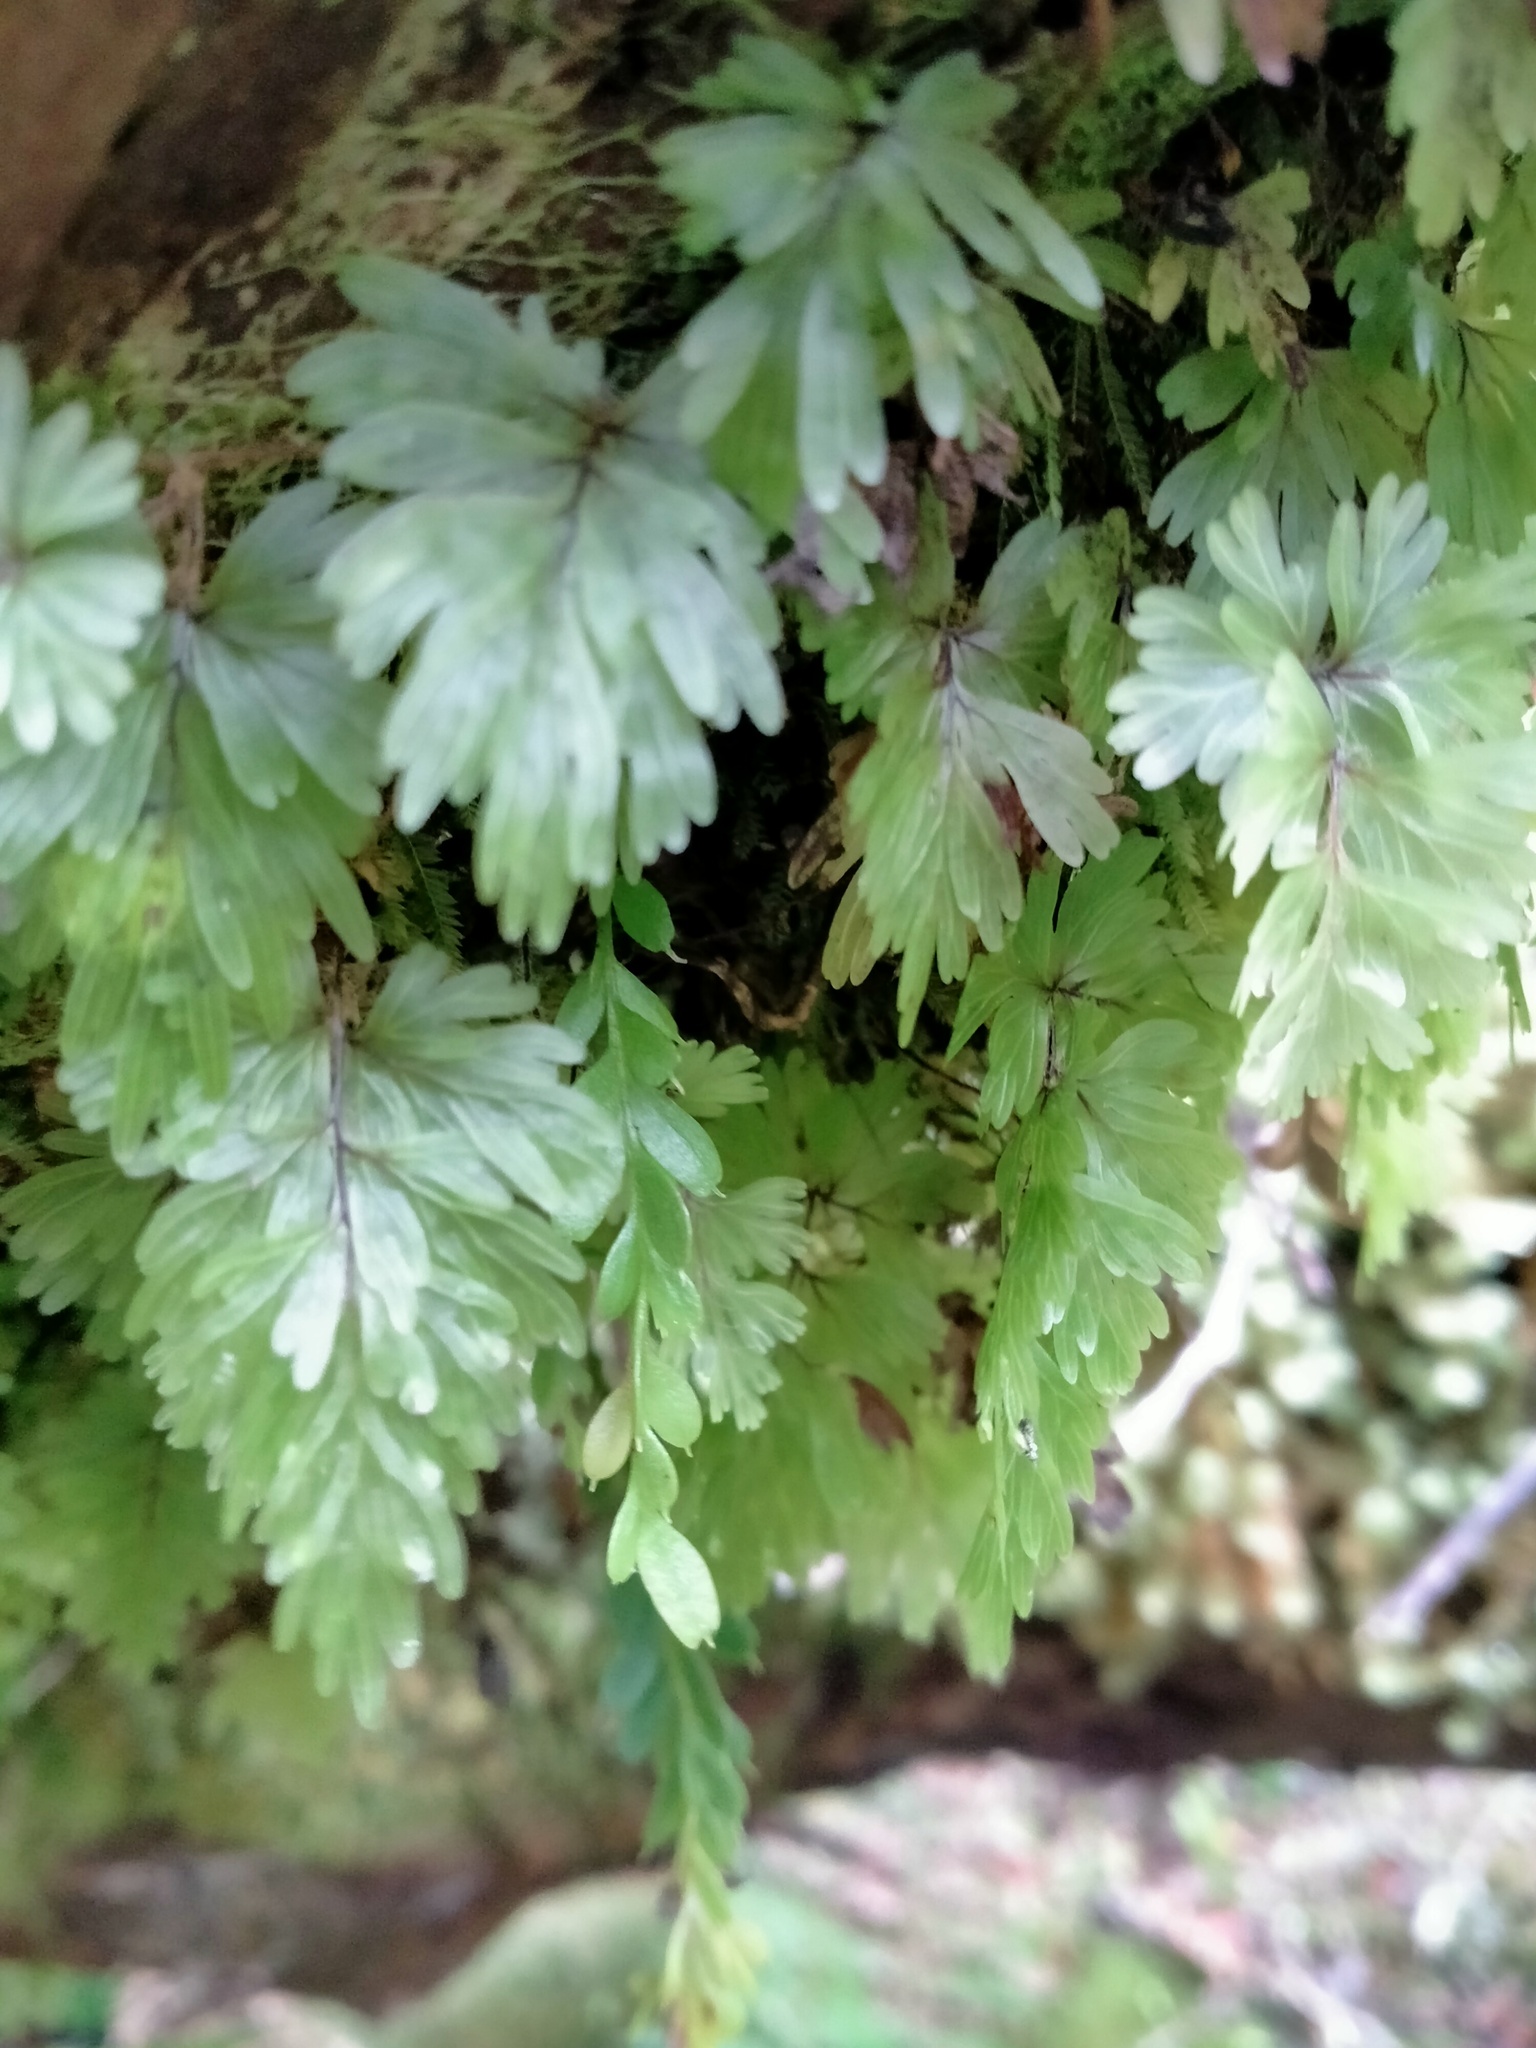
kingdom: Plantae
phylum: Tracheophyta
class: Polypodiopsida
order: Hymenophyllales
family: Hymenophyllaceae
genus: Hymenophyllum
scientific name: Hymenophyllum flabellatum
